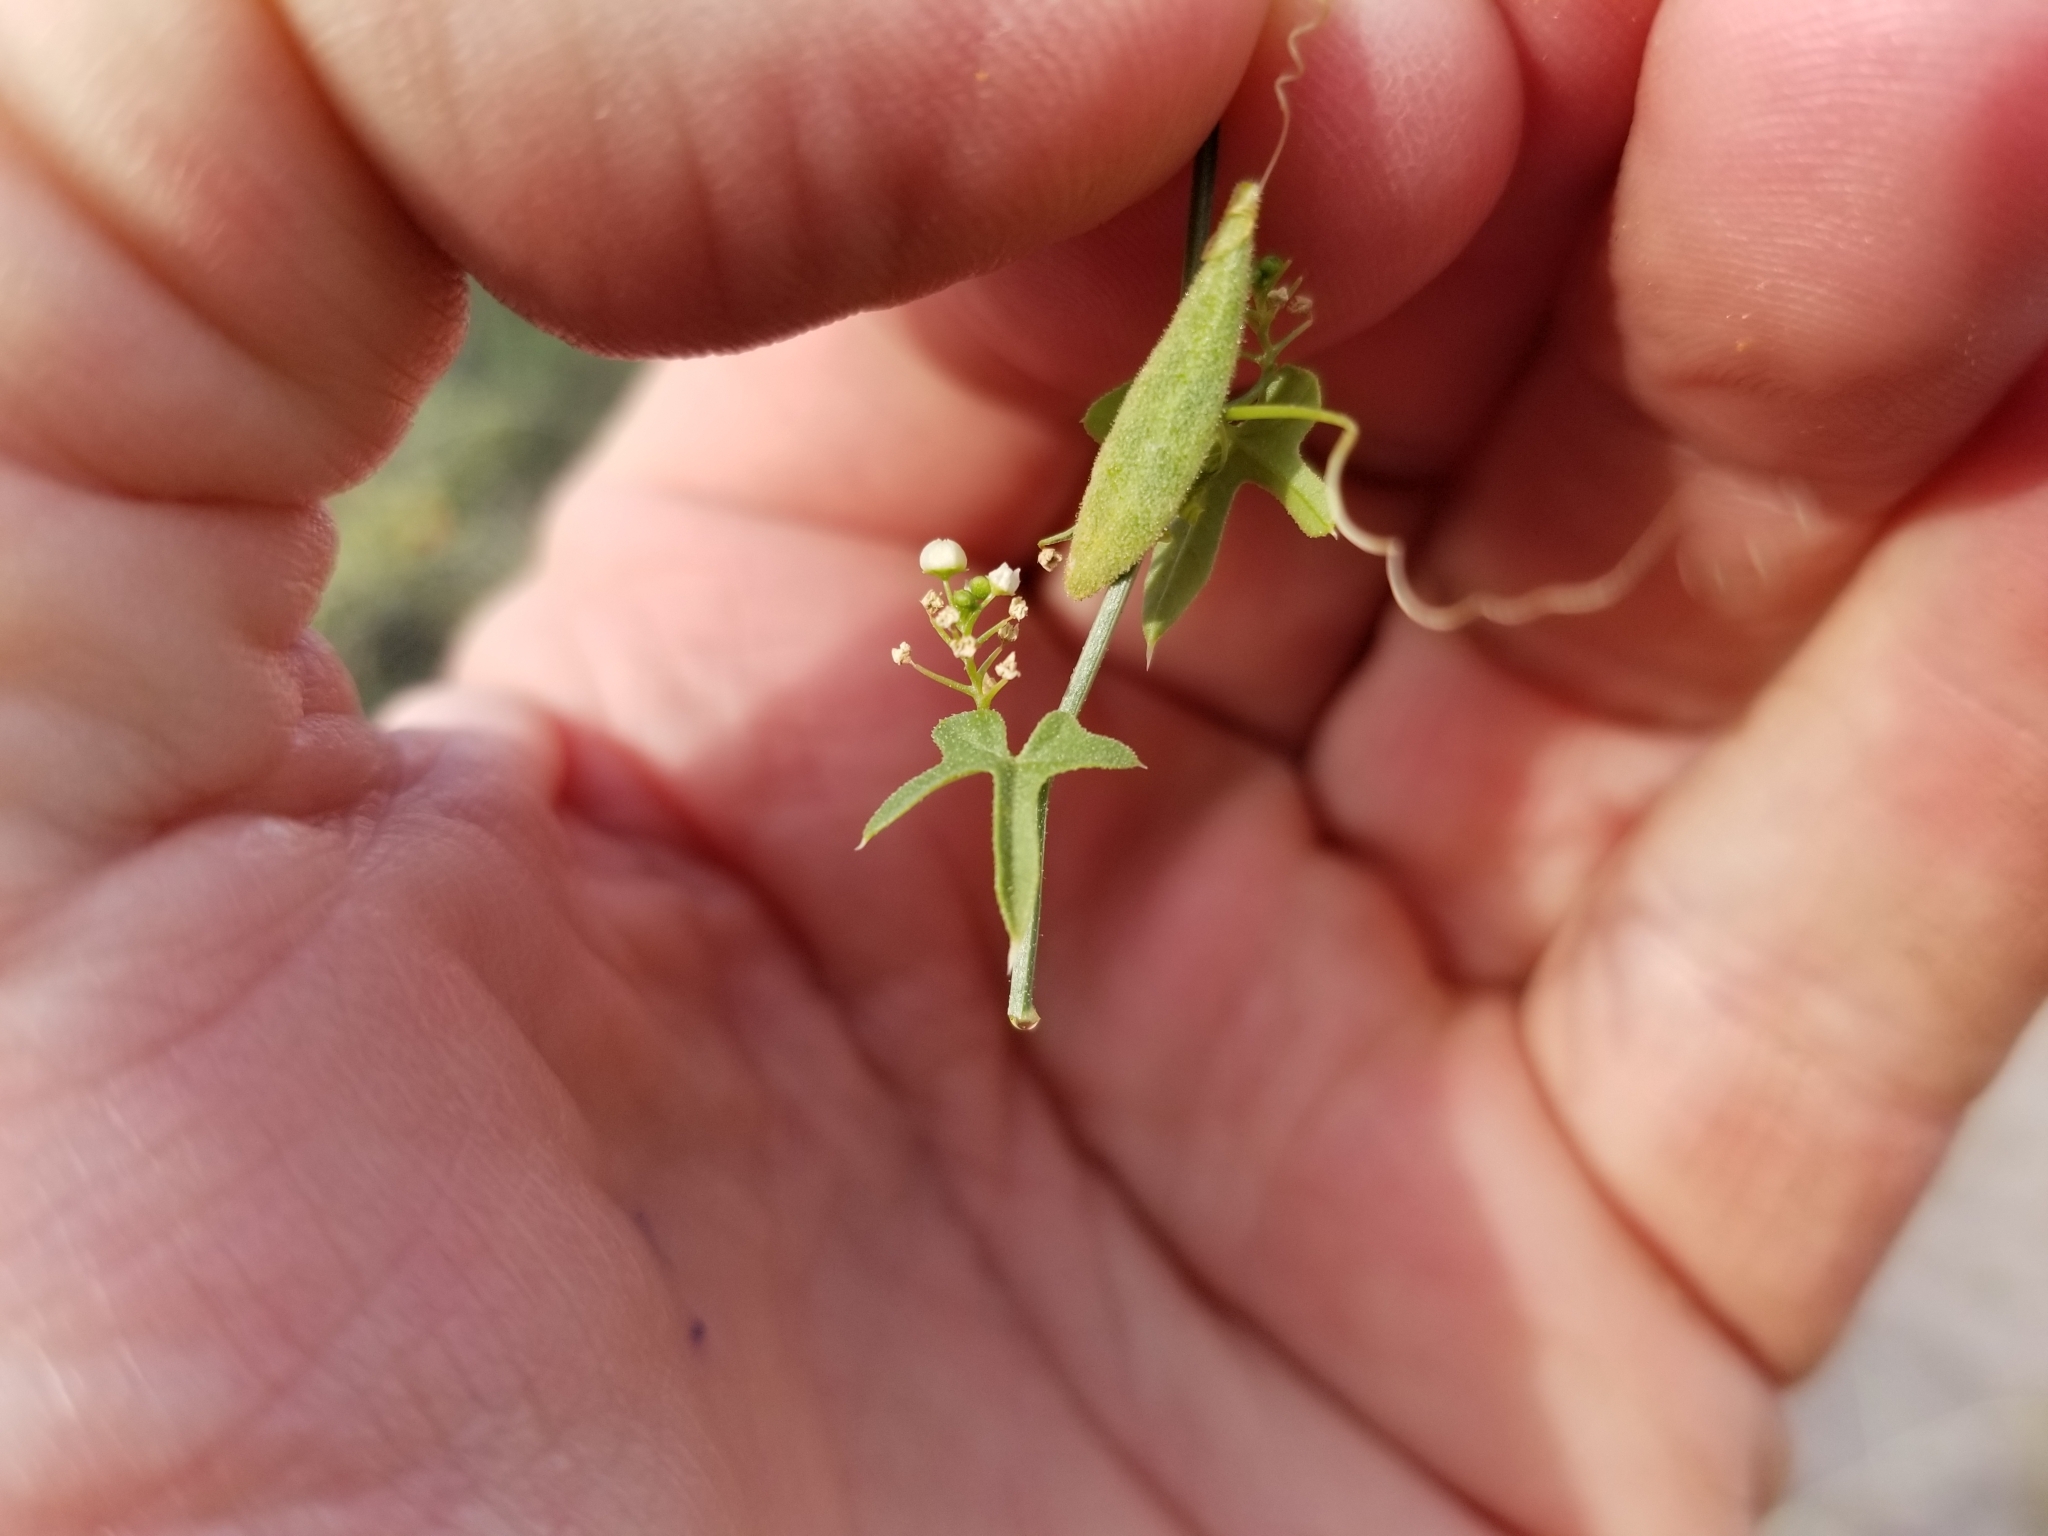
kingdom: Plantae
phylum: Tracheophyta
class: Magnoliopsida
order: Cucurbitales
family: Cucurbitaceae
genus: Echinopepon
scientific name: Echinopepon bigelovii
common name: Desert starvine
